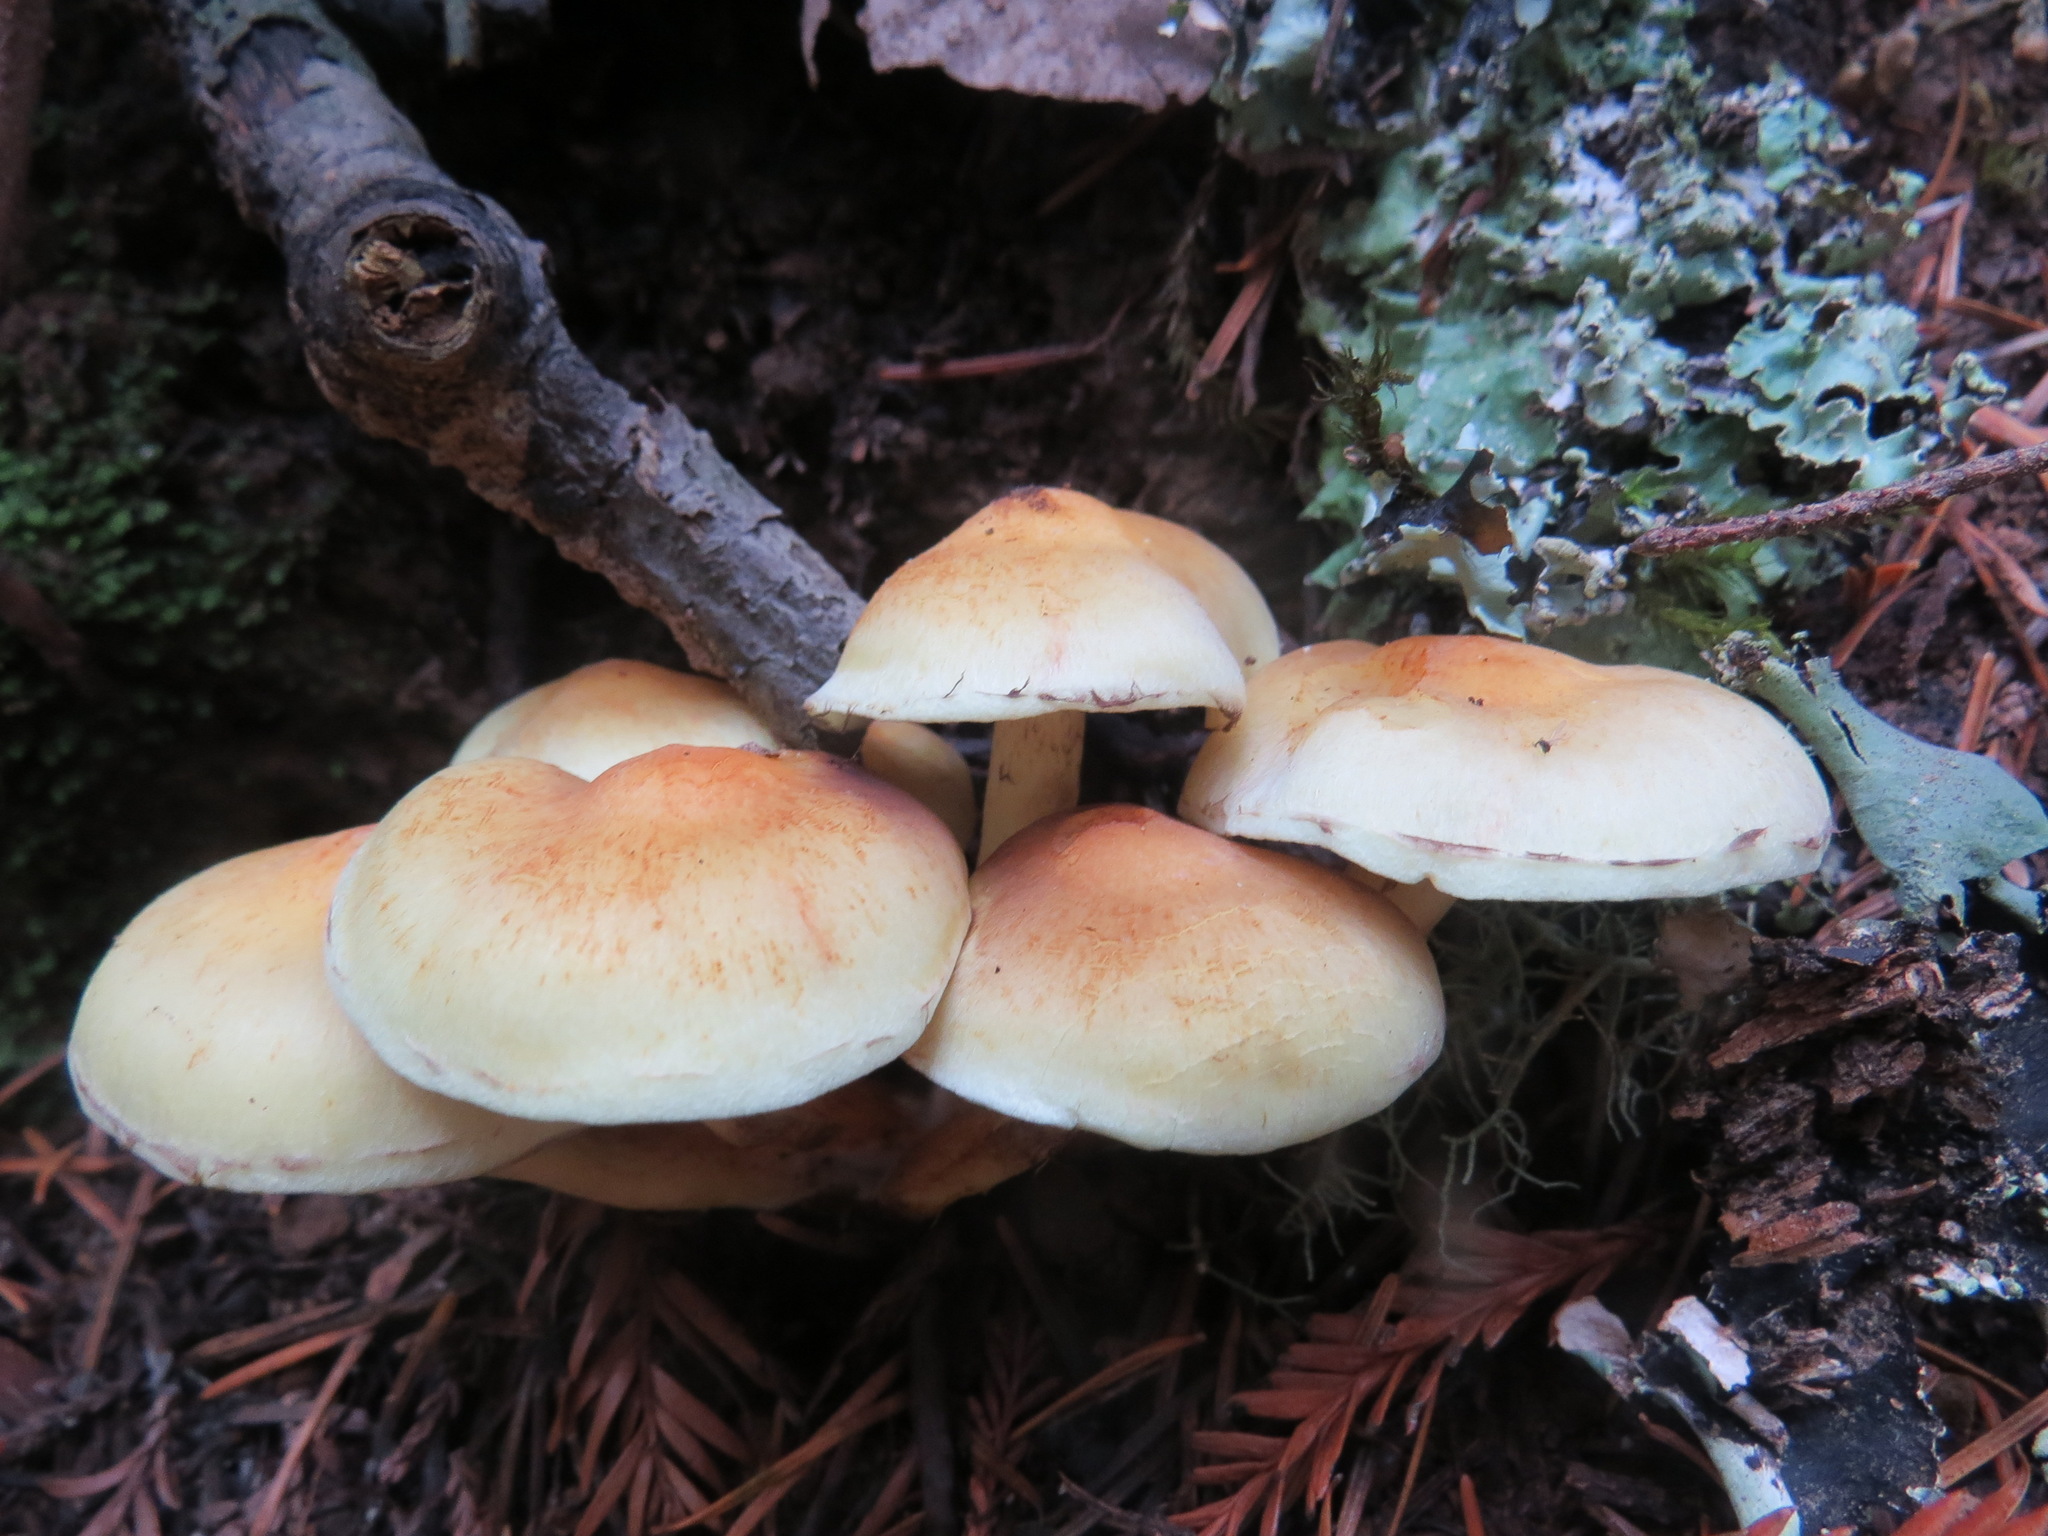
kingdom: Fungi
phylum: Basidiomycota
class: Agaricomycetes
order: Agaricales
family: Strophariaceae
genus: Hypholoma
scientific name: Hypholoma fasciculare
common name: Sulphur tuft
